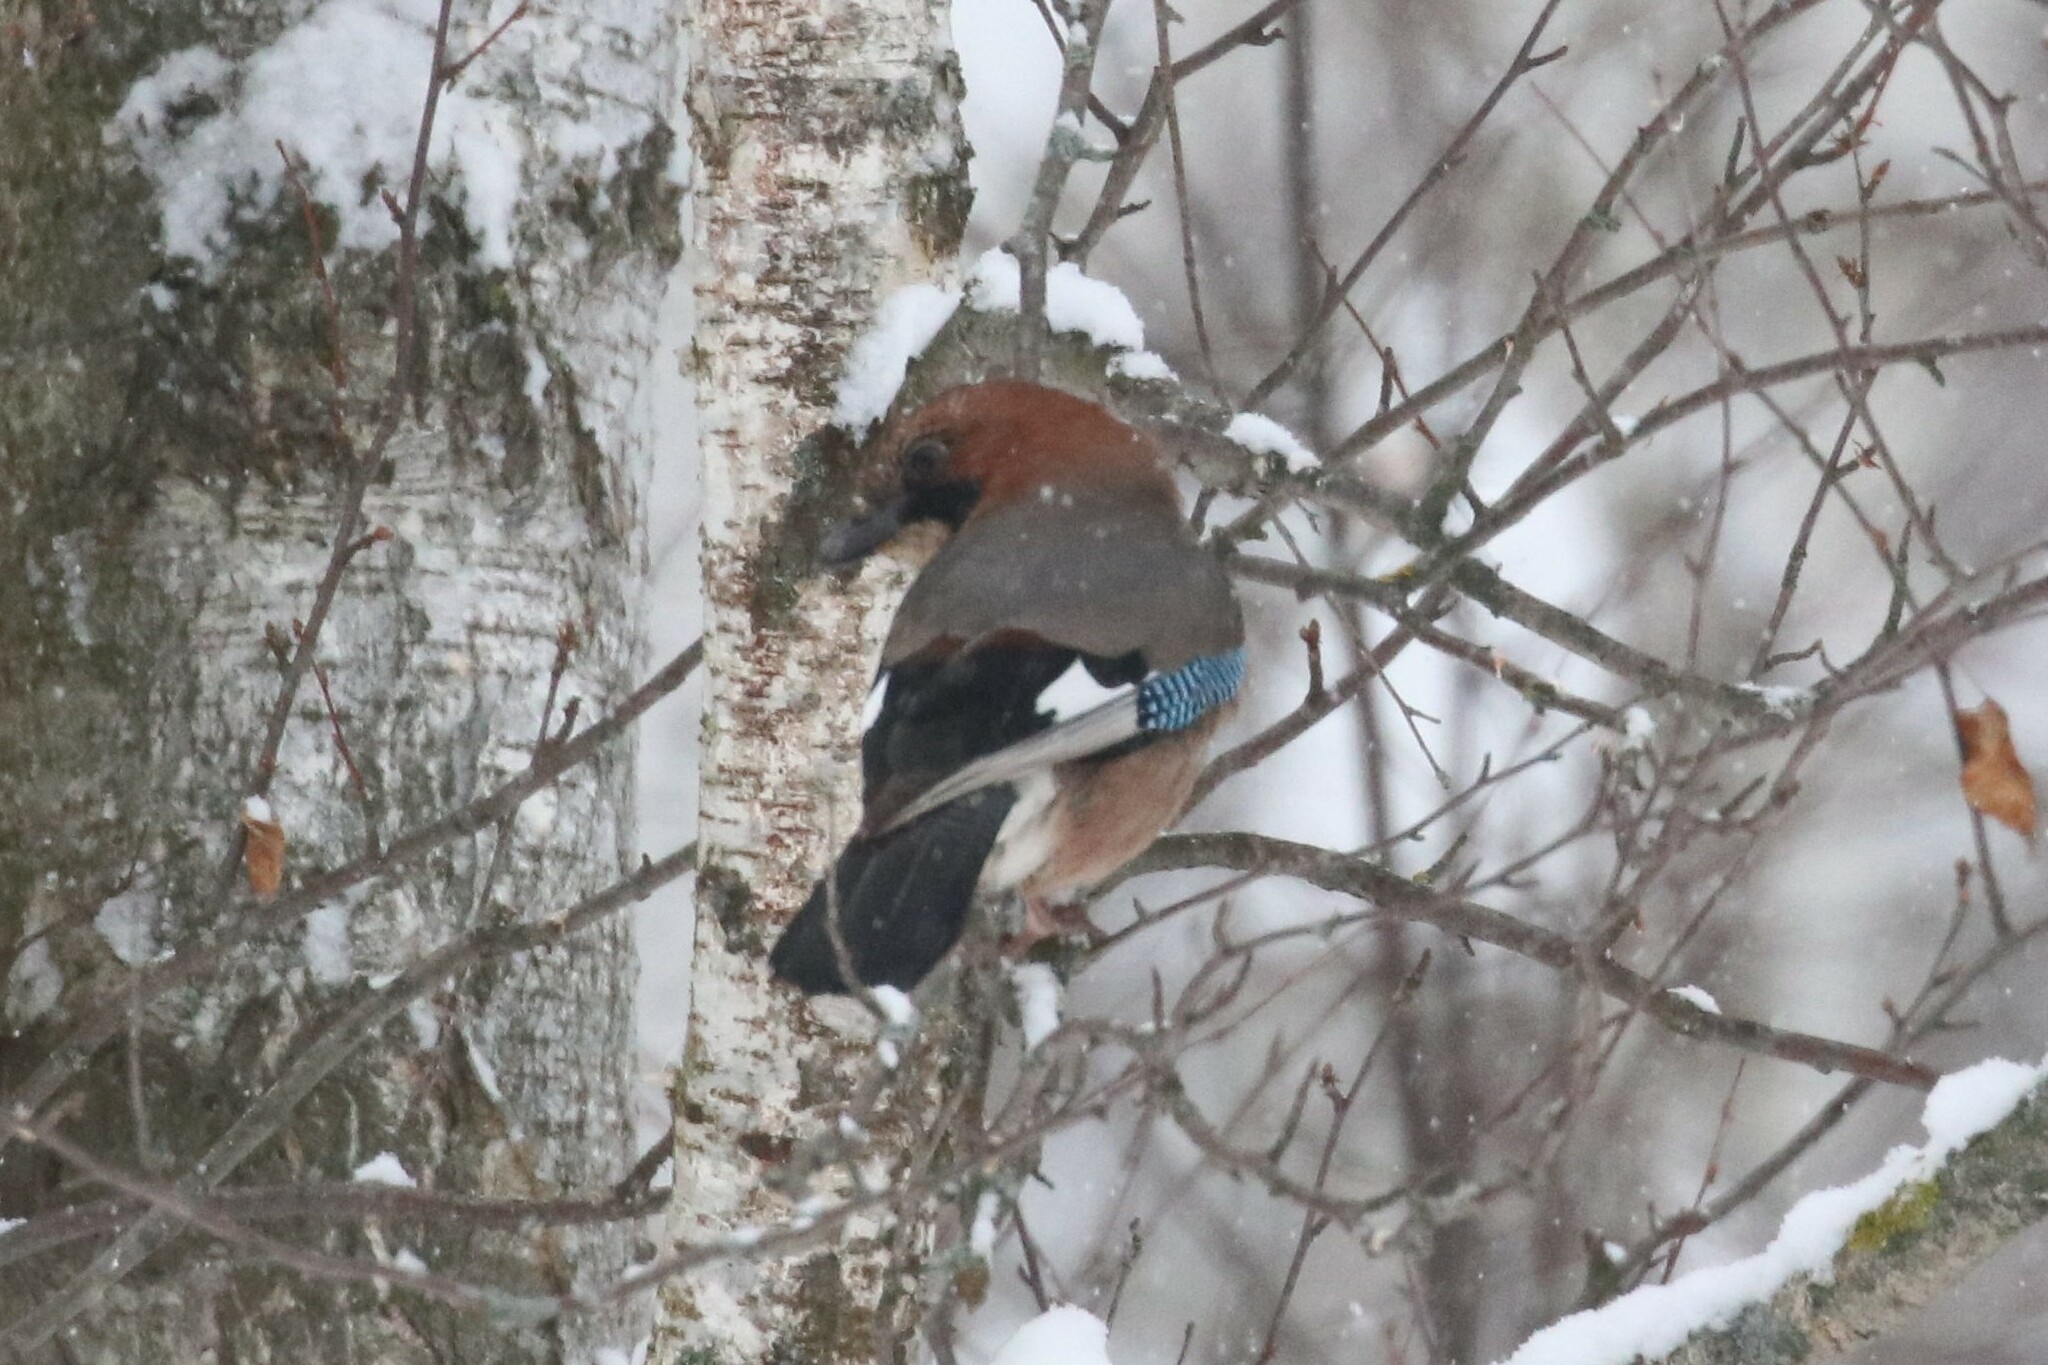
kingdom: Animalia
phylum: Chordata
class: Aves
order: Passeriformes
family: Corvidae
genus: Garrulus
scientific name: Garrulus glandarius
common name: Eurasian jay
